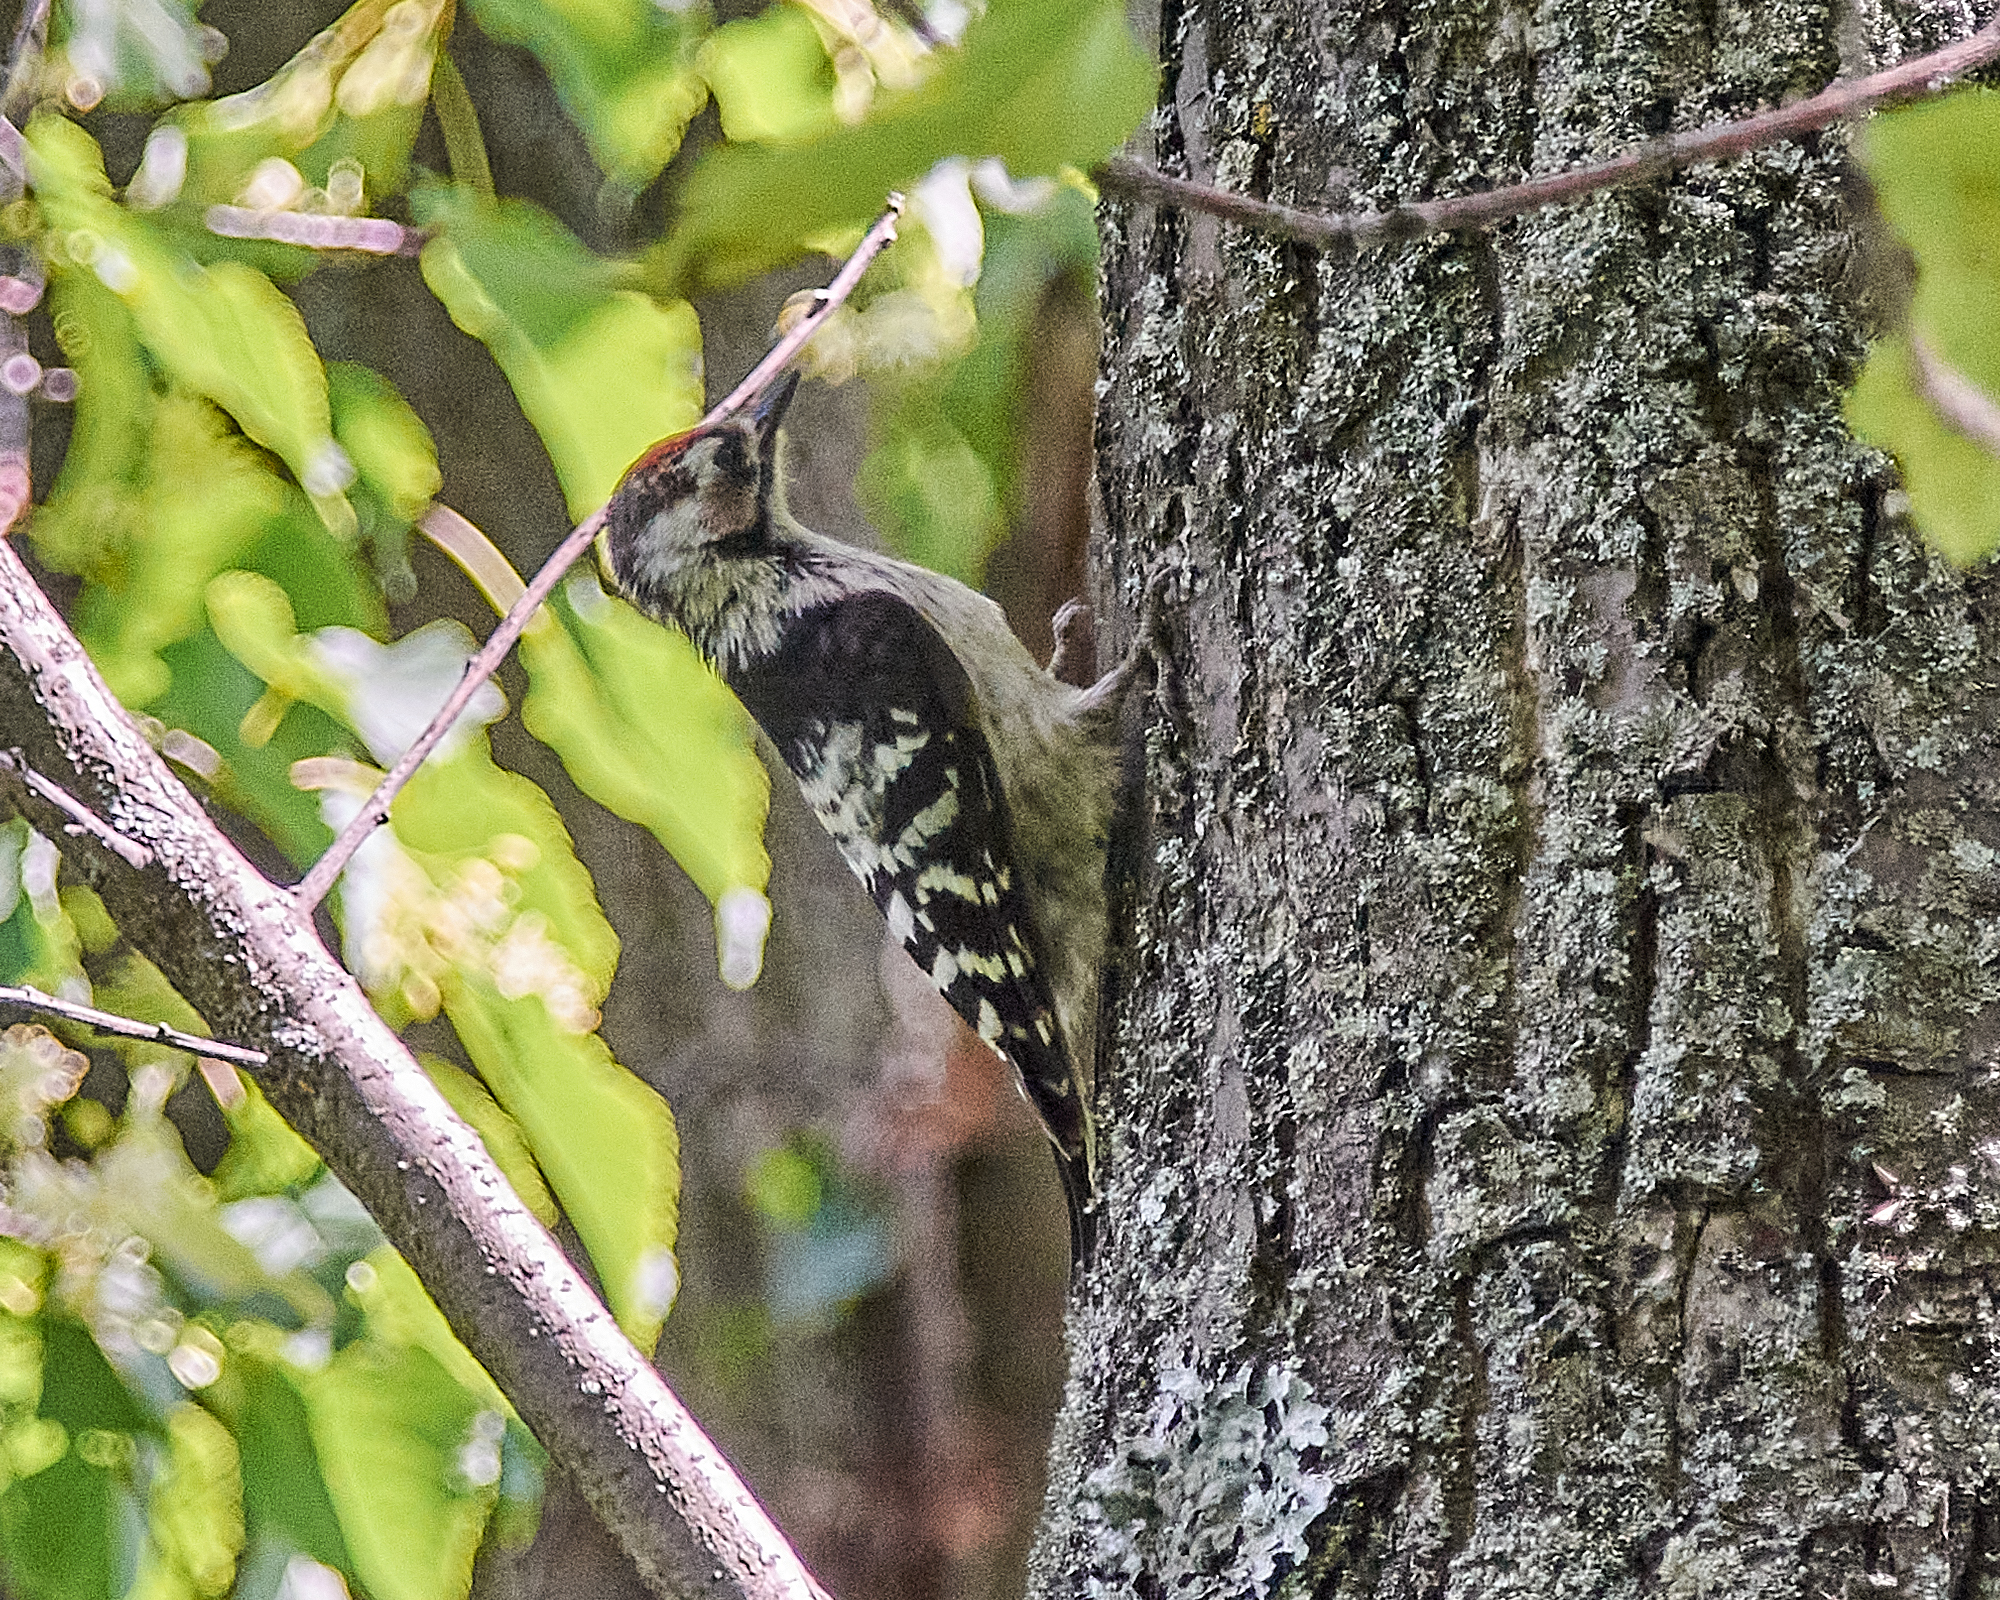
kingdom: Animalia
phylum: Chordata
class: Aves
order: Piciformes
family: Picidae
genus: Dryobates
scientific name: Dryobates minor
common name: Lesser spotted woodpecker
